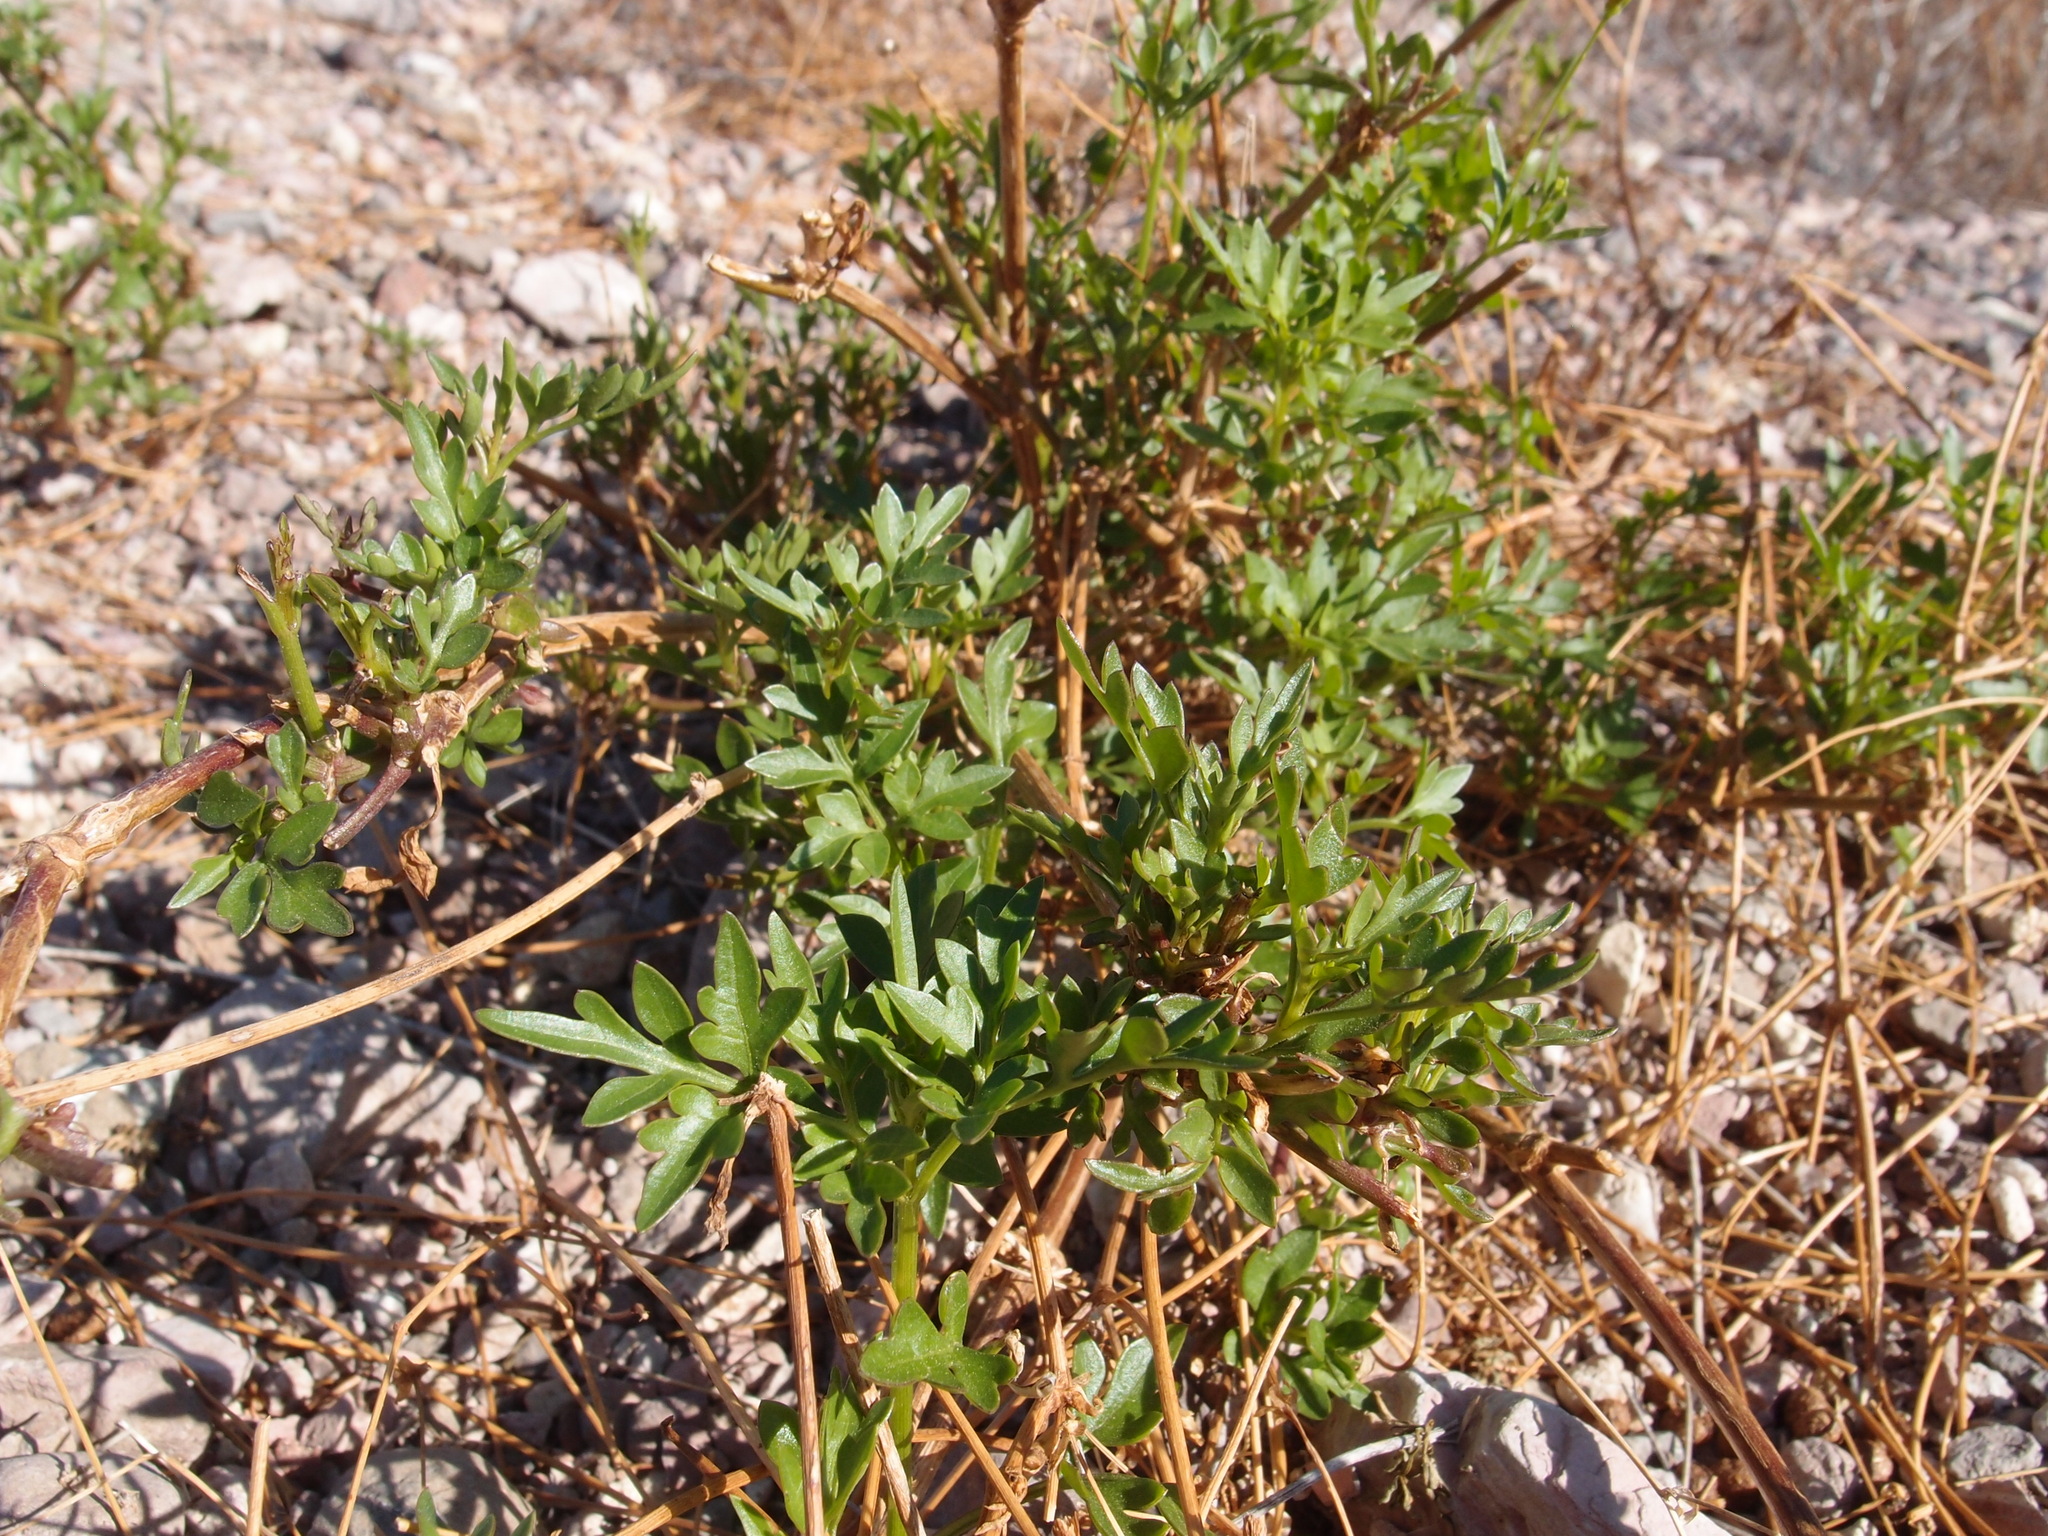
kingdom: Plantae
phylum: Tracheophyta
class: Magnoliopsida
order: Asterales
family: Asteraceae
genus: Coreocarpus
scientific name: Coreocarpus sonoranus
